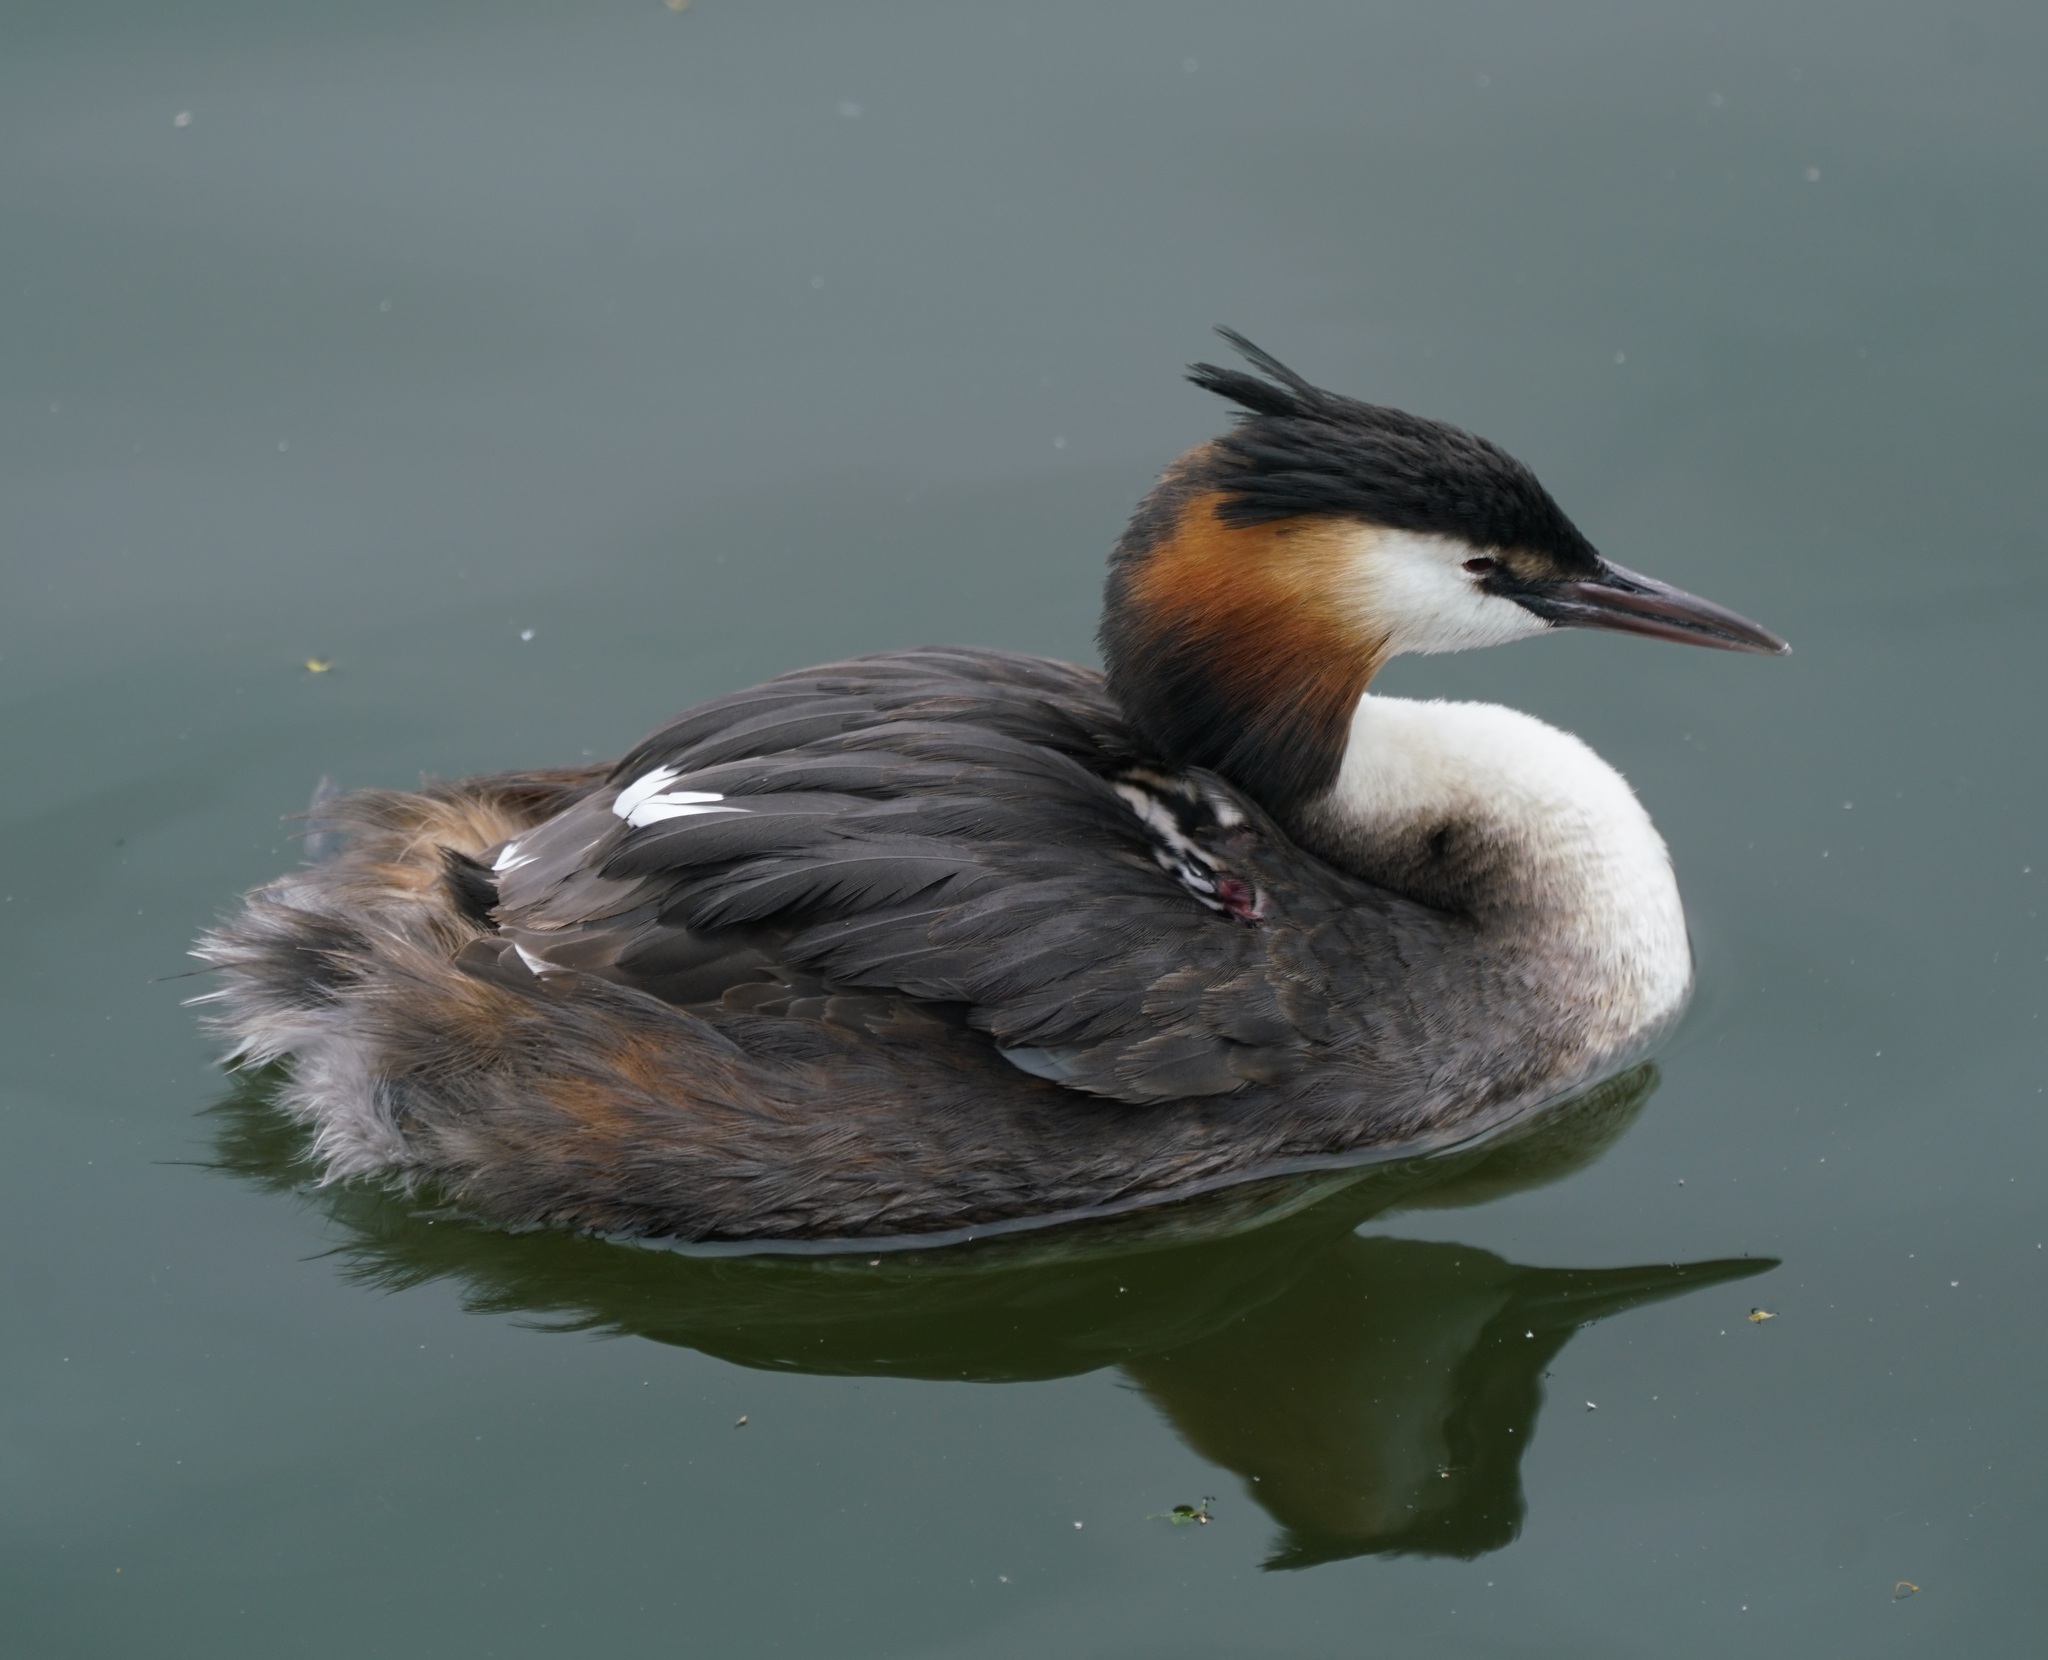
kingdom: Animalia
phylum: Chordata
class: Aves
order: Podicipediformes
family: Podicipedidae
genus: Podiceps
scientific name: Podiceps cristatus
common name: Great crested grebe
